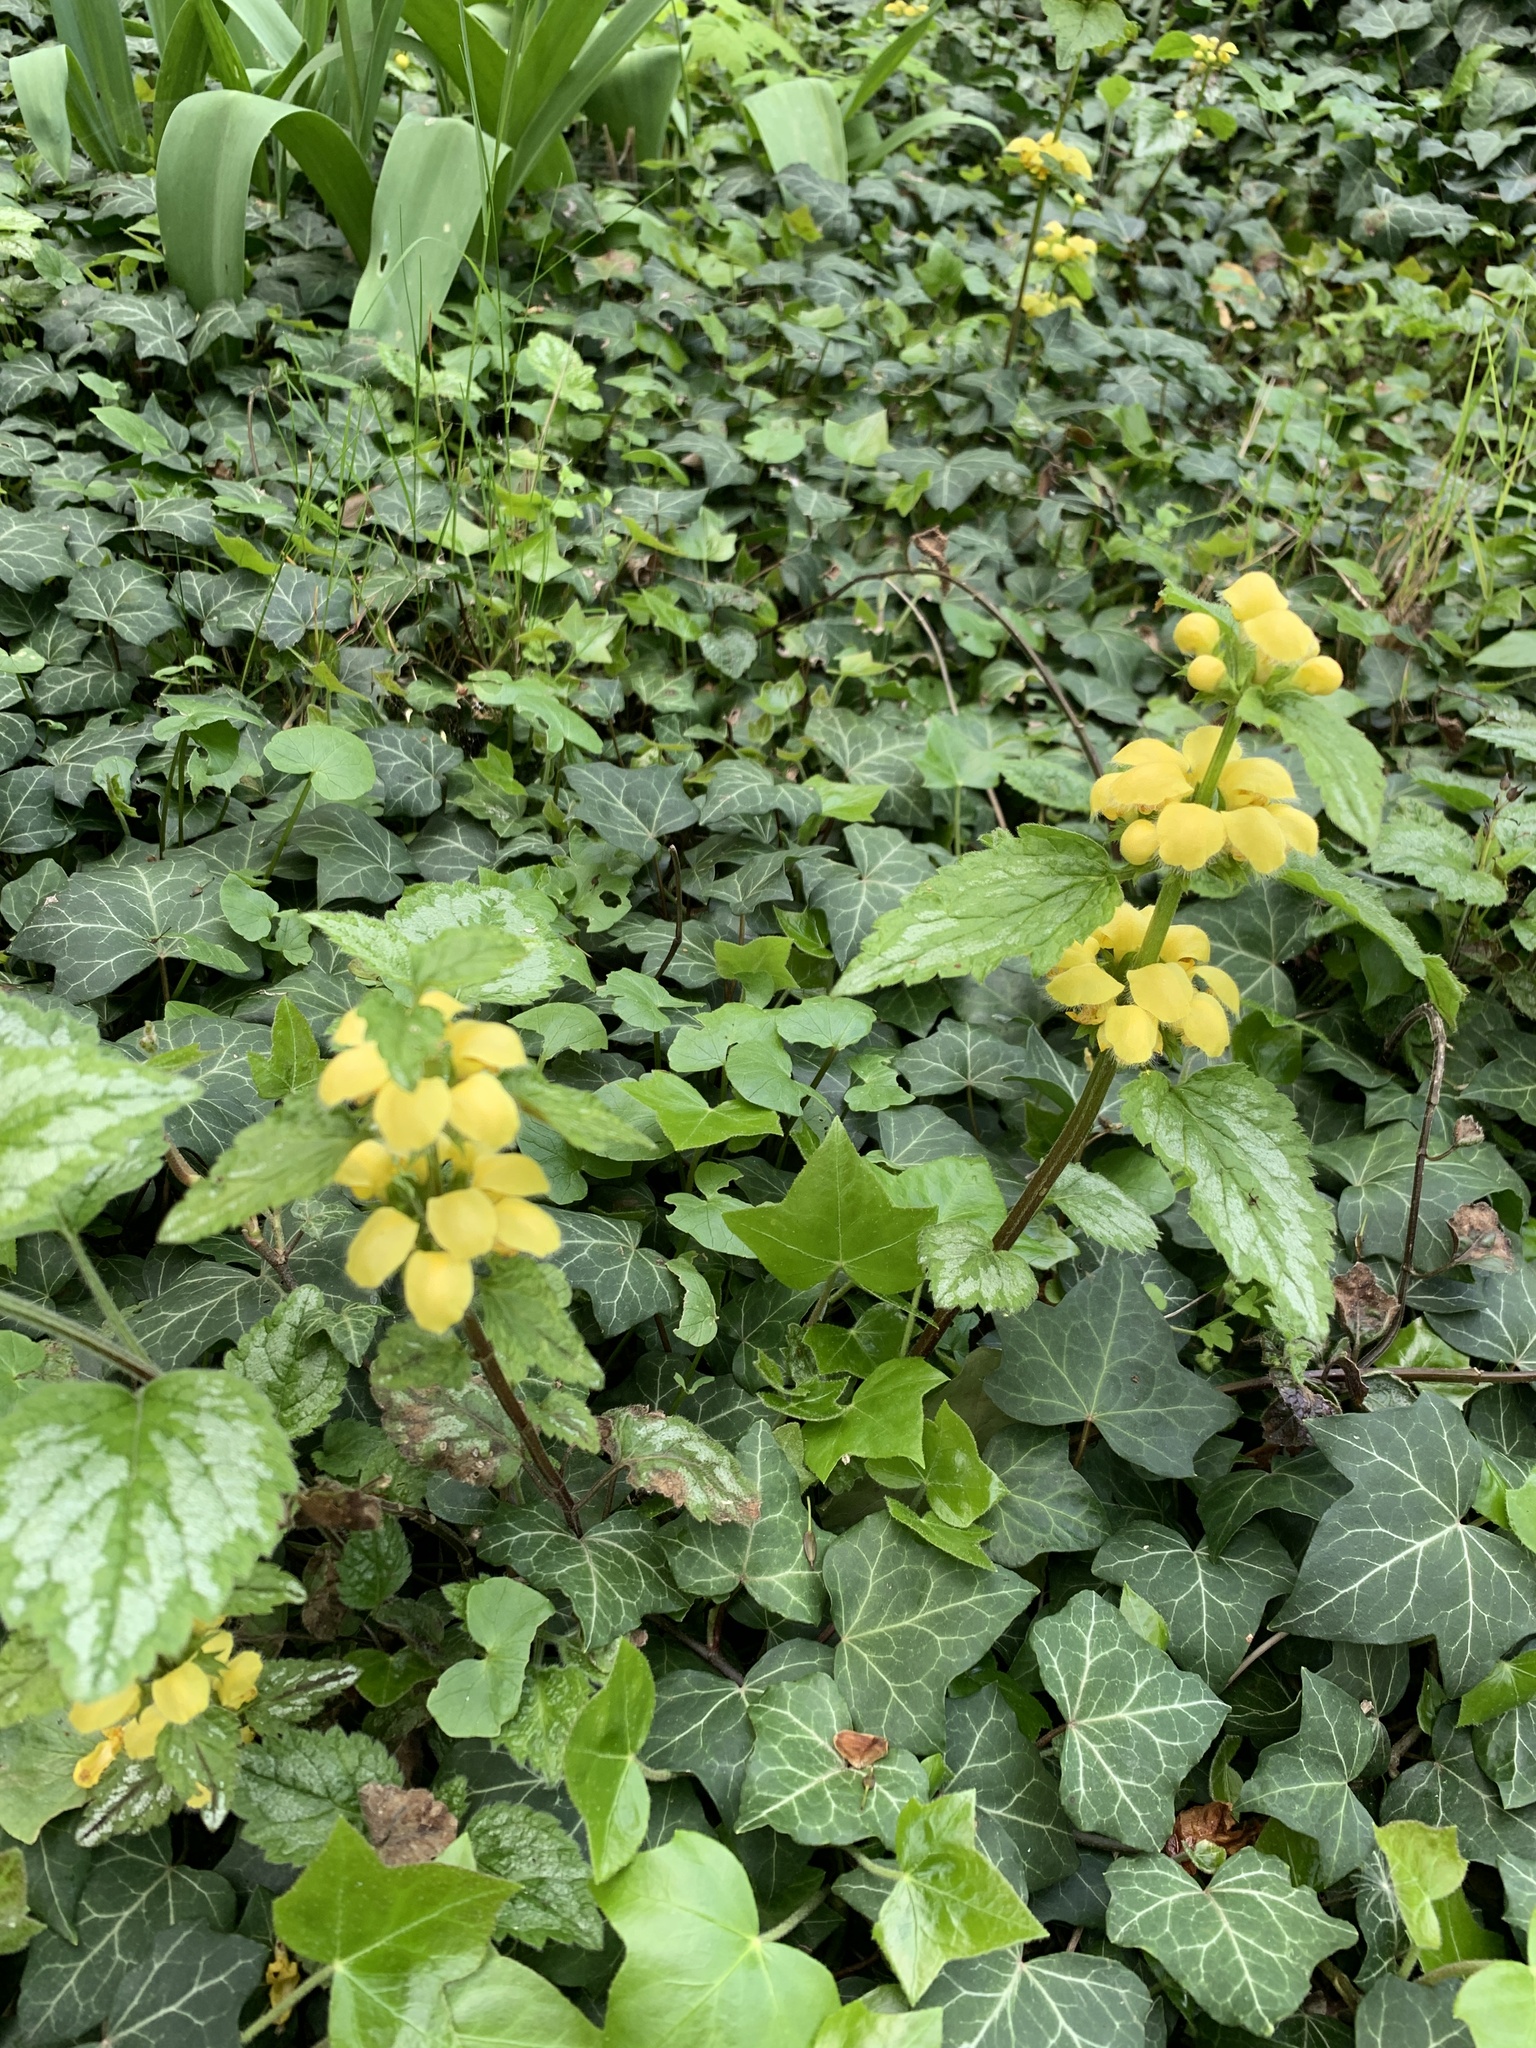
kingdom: Plantae
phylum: Tracheophyta
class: Magnoliopsida
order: Lamiales
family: Lamiaceae
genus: Lamium
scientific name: Lamium galeobdolon
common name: Yellow archangel
